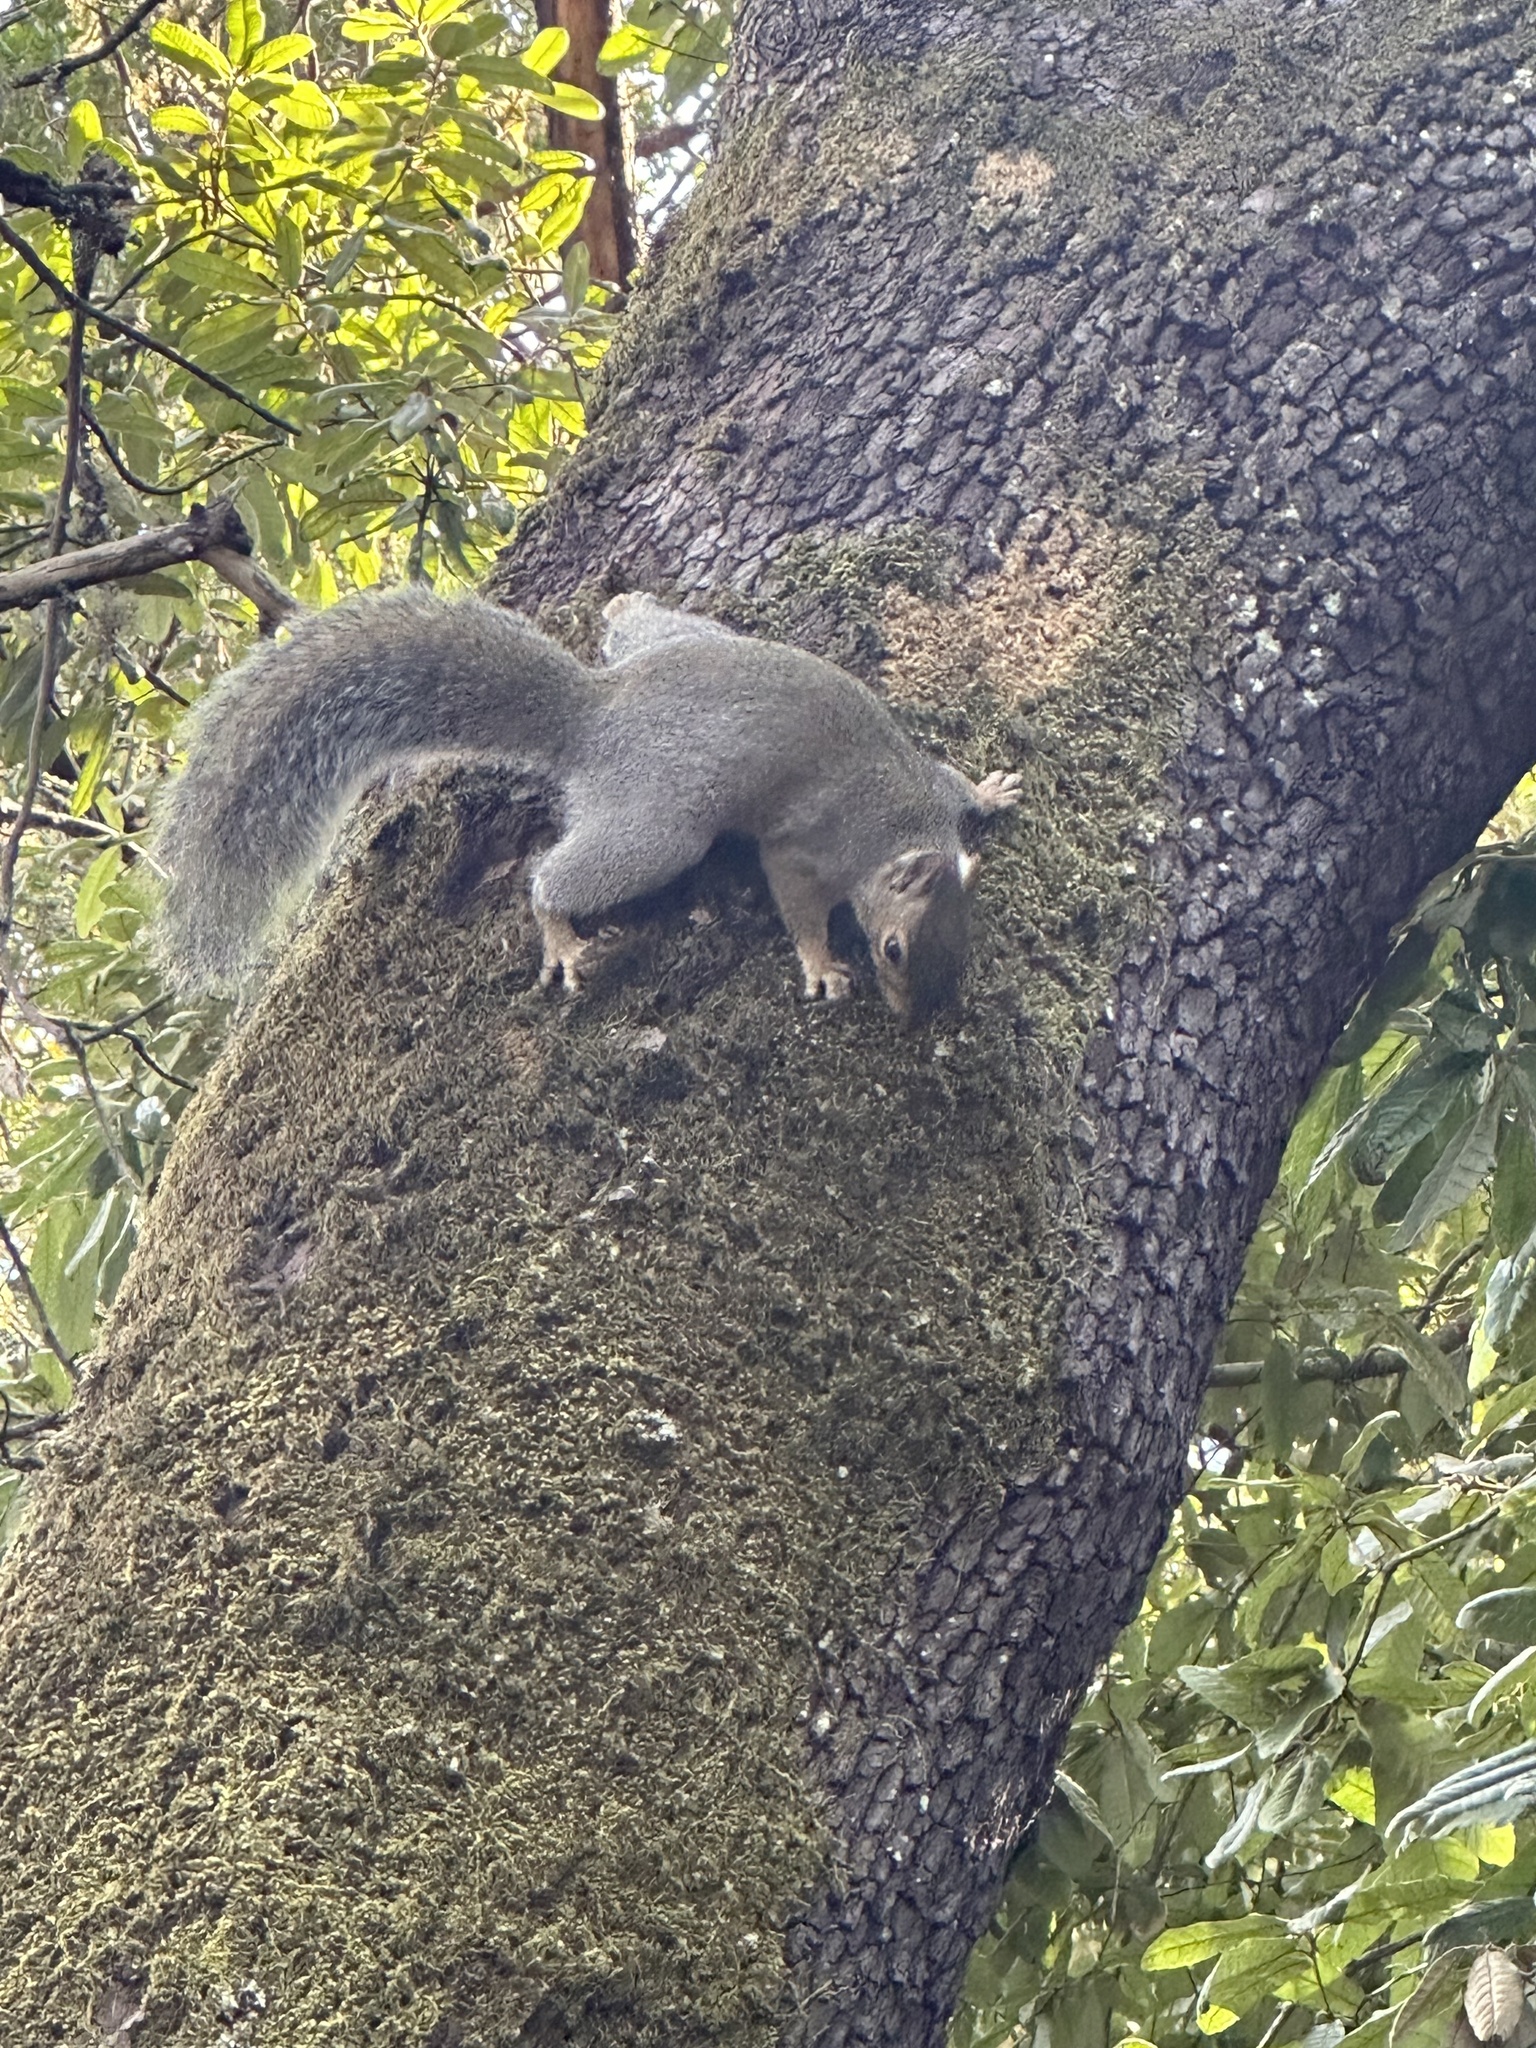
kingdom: Animalia
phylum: Chordata
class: Mammalia
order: Rodentia
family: Sciuridae
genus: Sciurus
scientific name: Sciurus carolinensis
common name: Eastern gray squirrel
